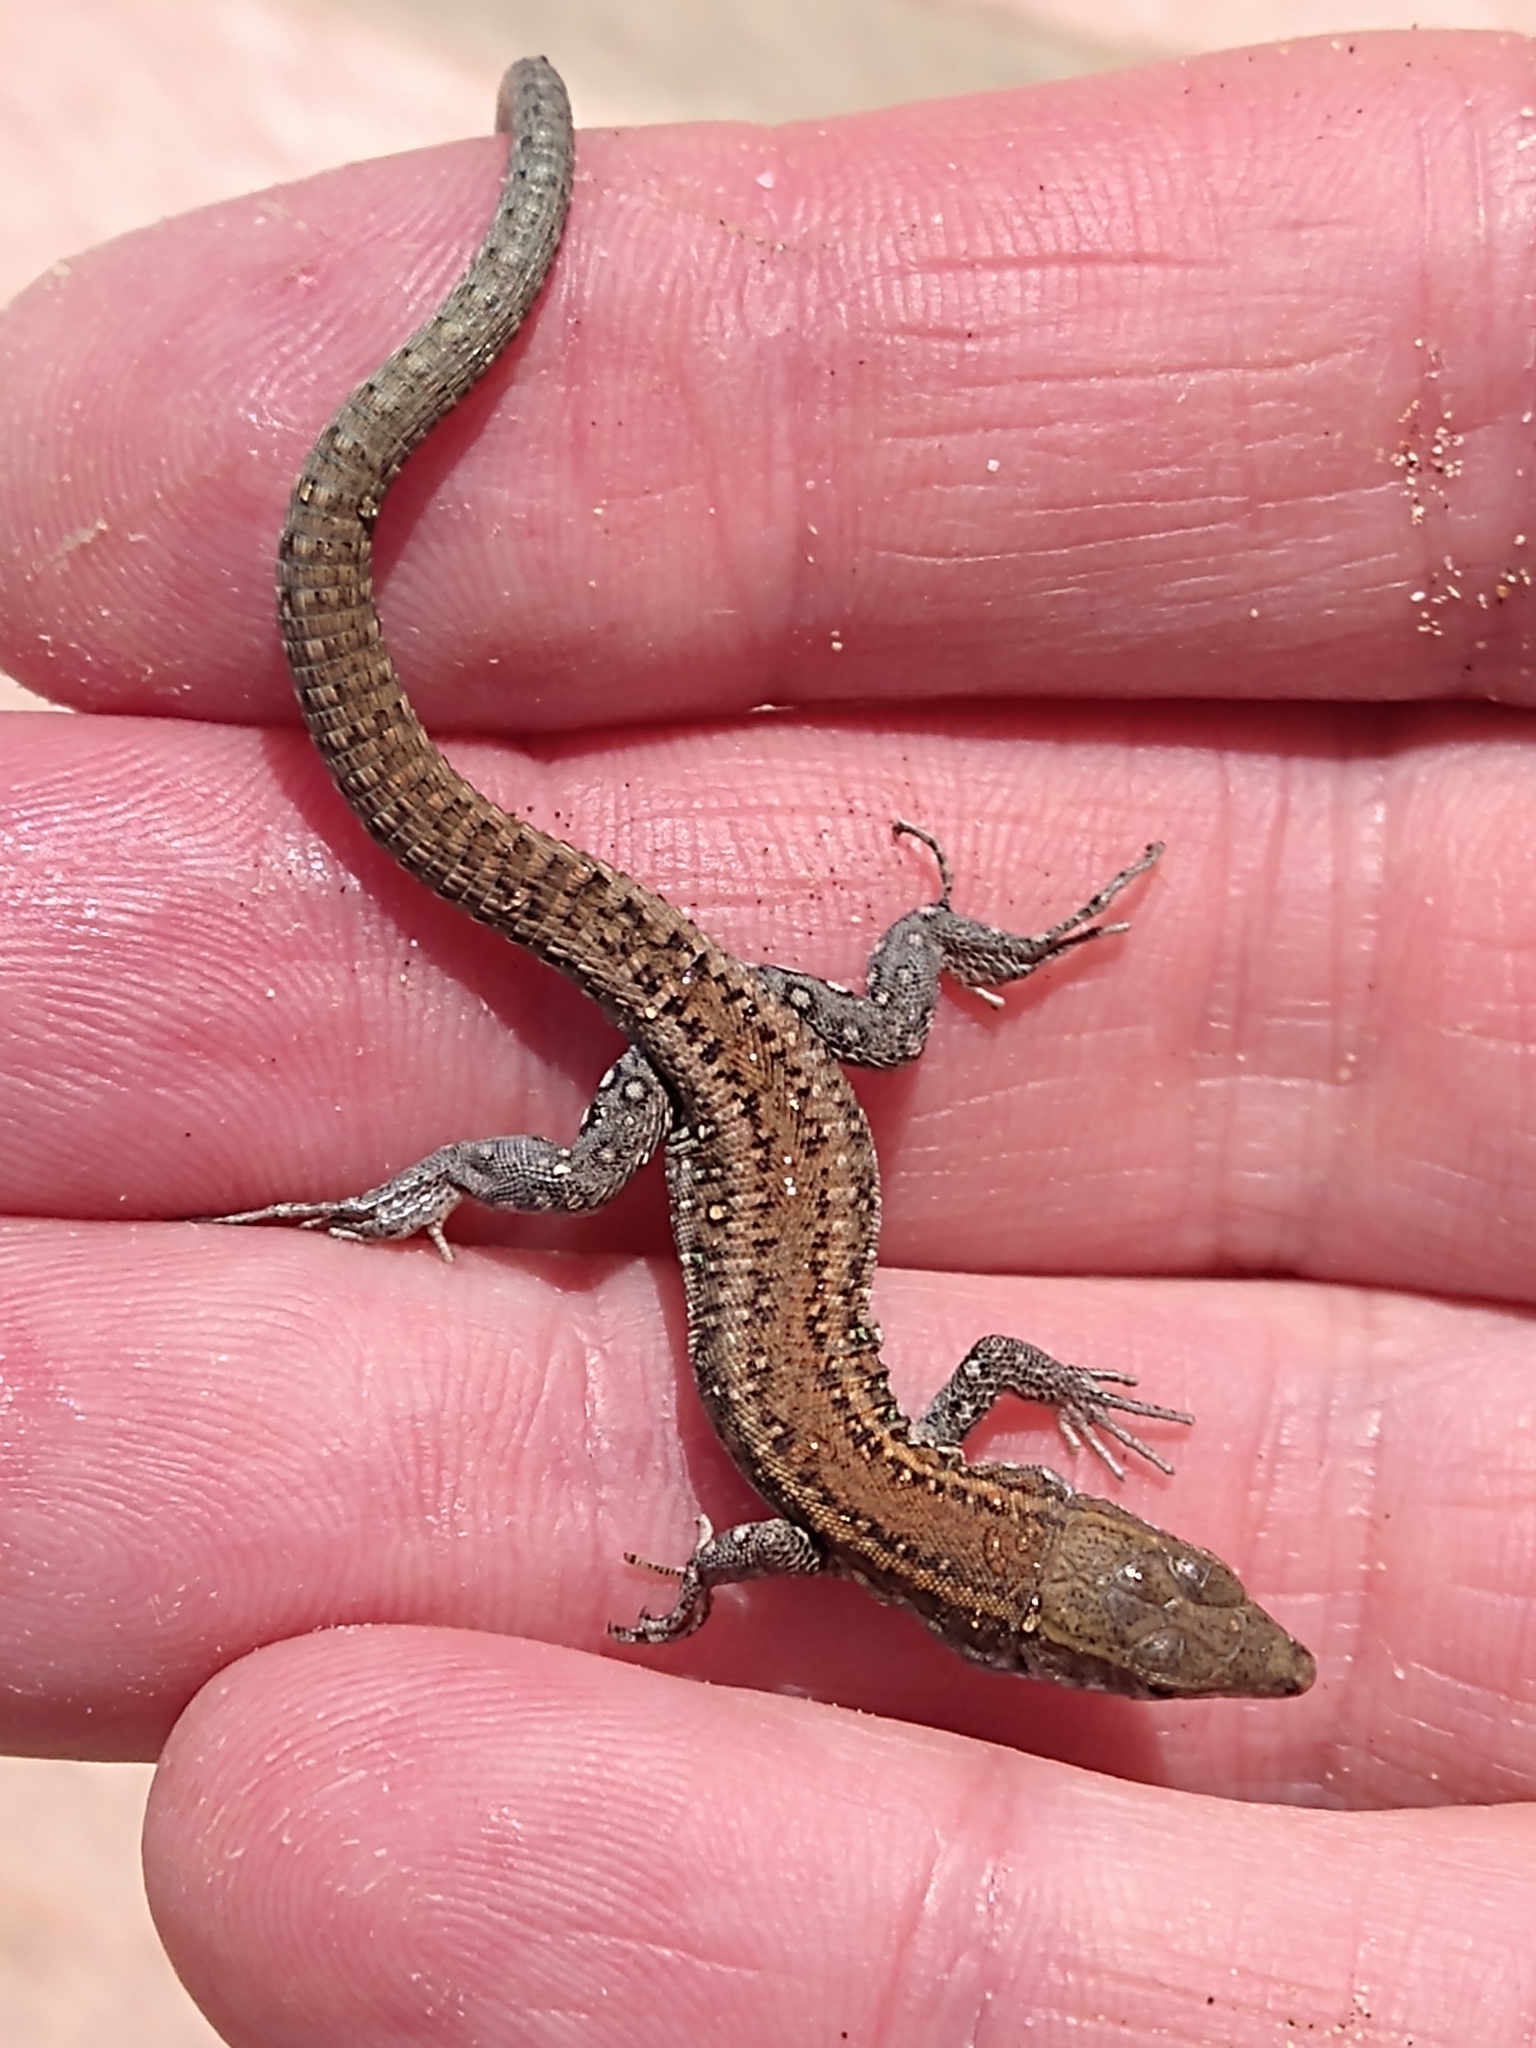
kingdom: Animalia
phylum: Chordata
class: Squamata
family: Lacertidae
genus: Gallotia
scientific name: Gallotia atlantica
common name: Atlantic lizard
